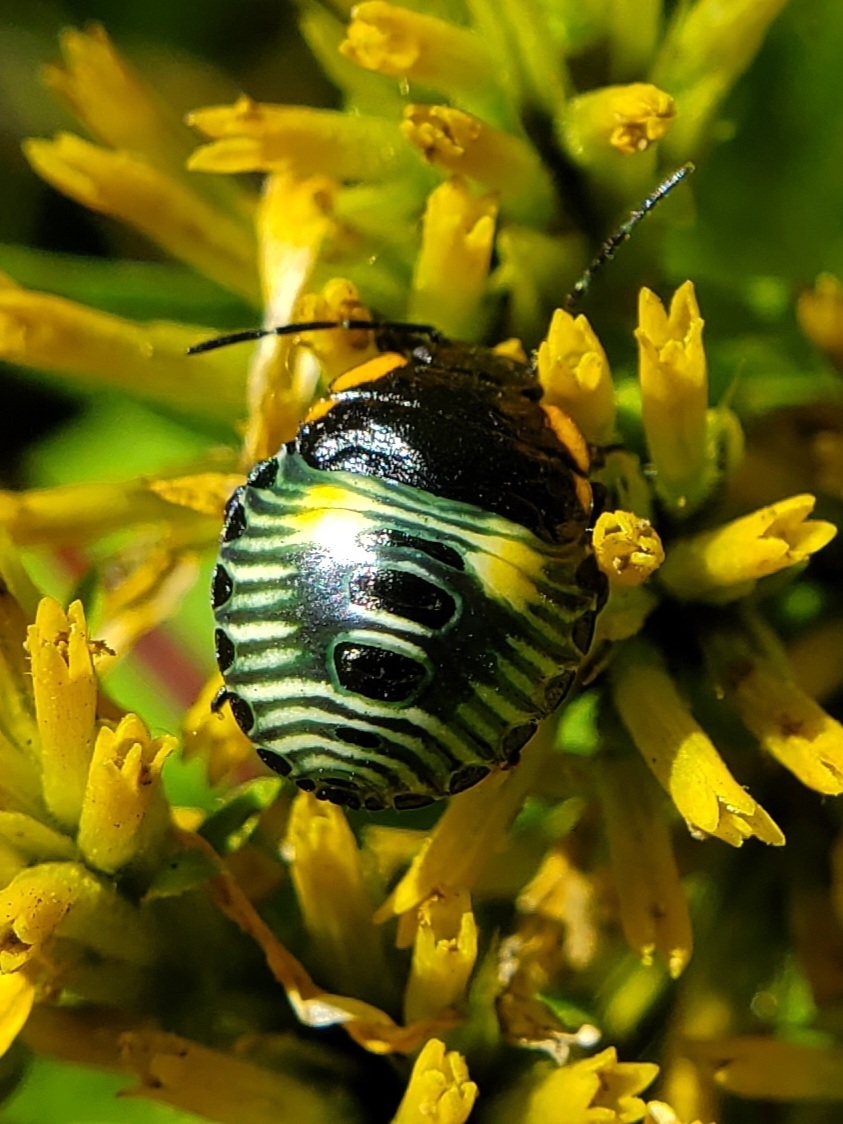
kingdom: Animalia
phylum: Arthropoda
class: Insecta
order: Hemiptera
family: Pentatomidae
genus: Chinavia
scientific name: Chinavia hilaris
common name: Green stink bug
